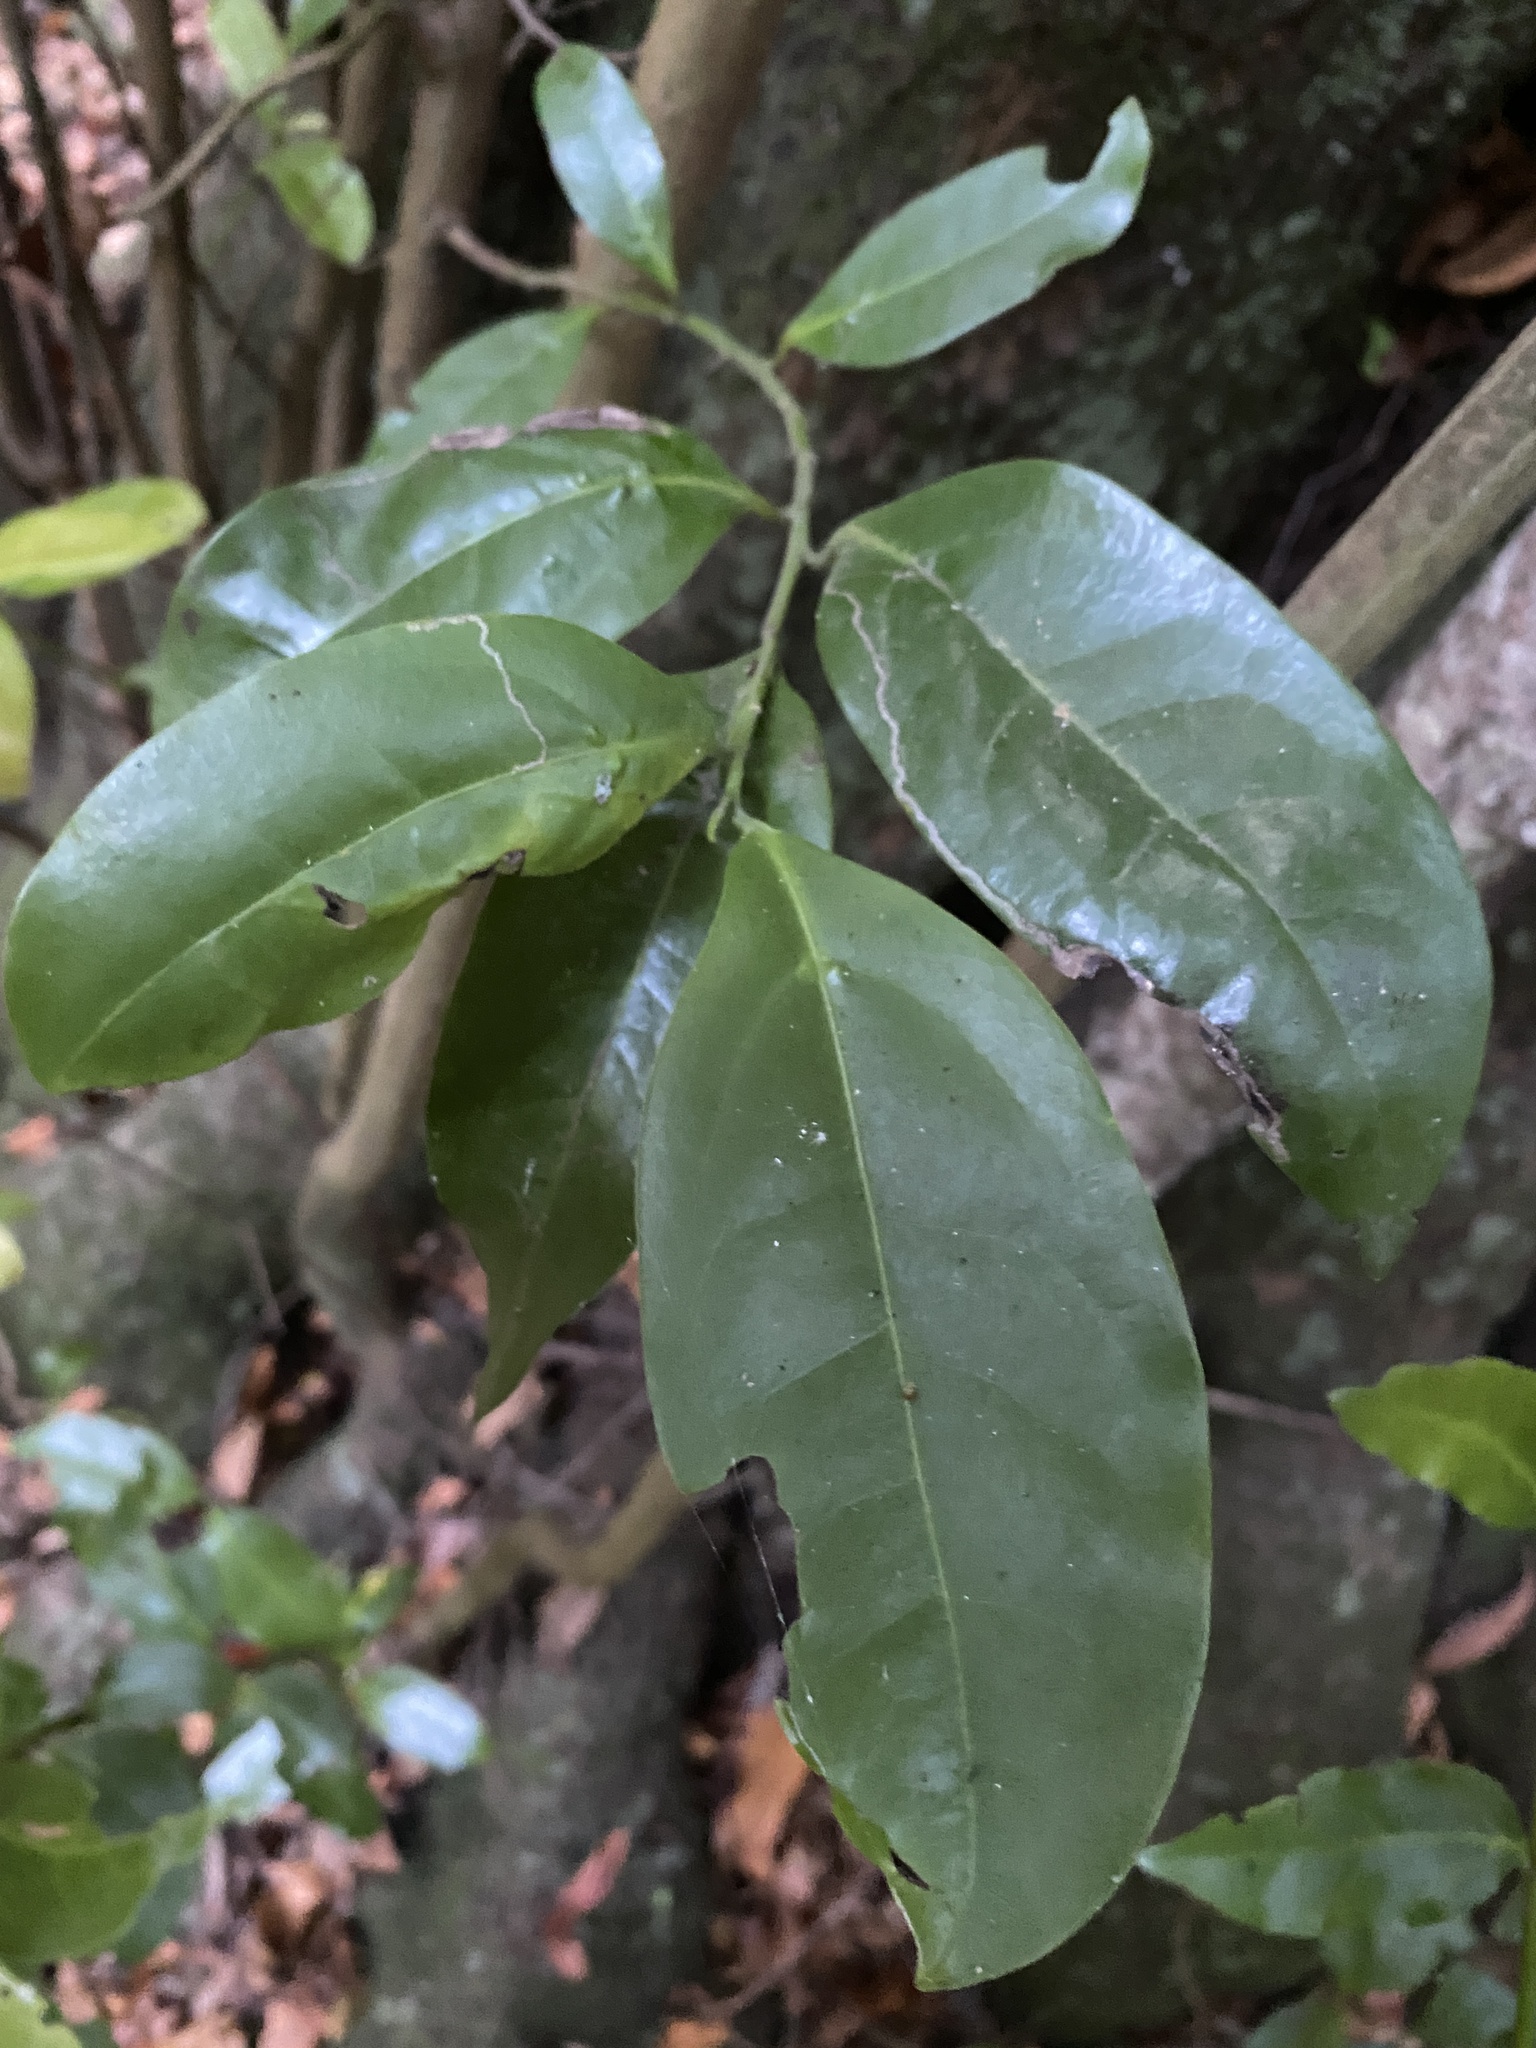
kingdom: Plantae
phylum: Tracheophyta
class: Magnoliopsida
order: Laurales
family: Lauraceae
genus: Mespilodaphne
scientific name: Mespilodaphne foetens
